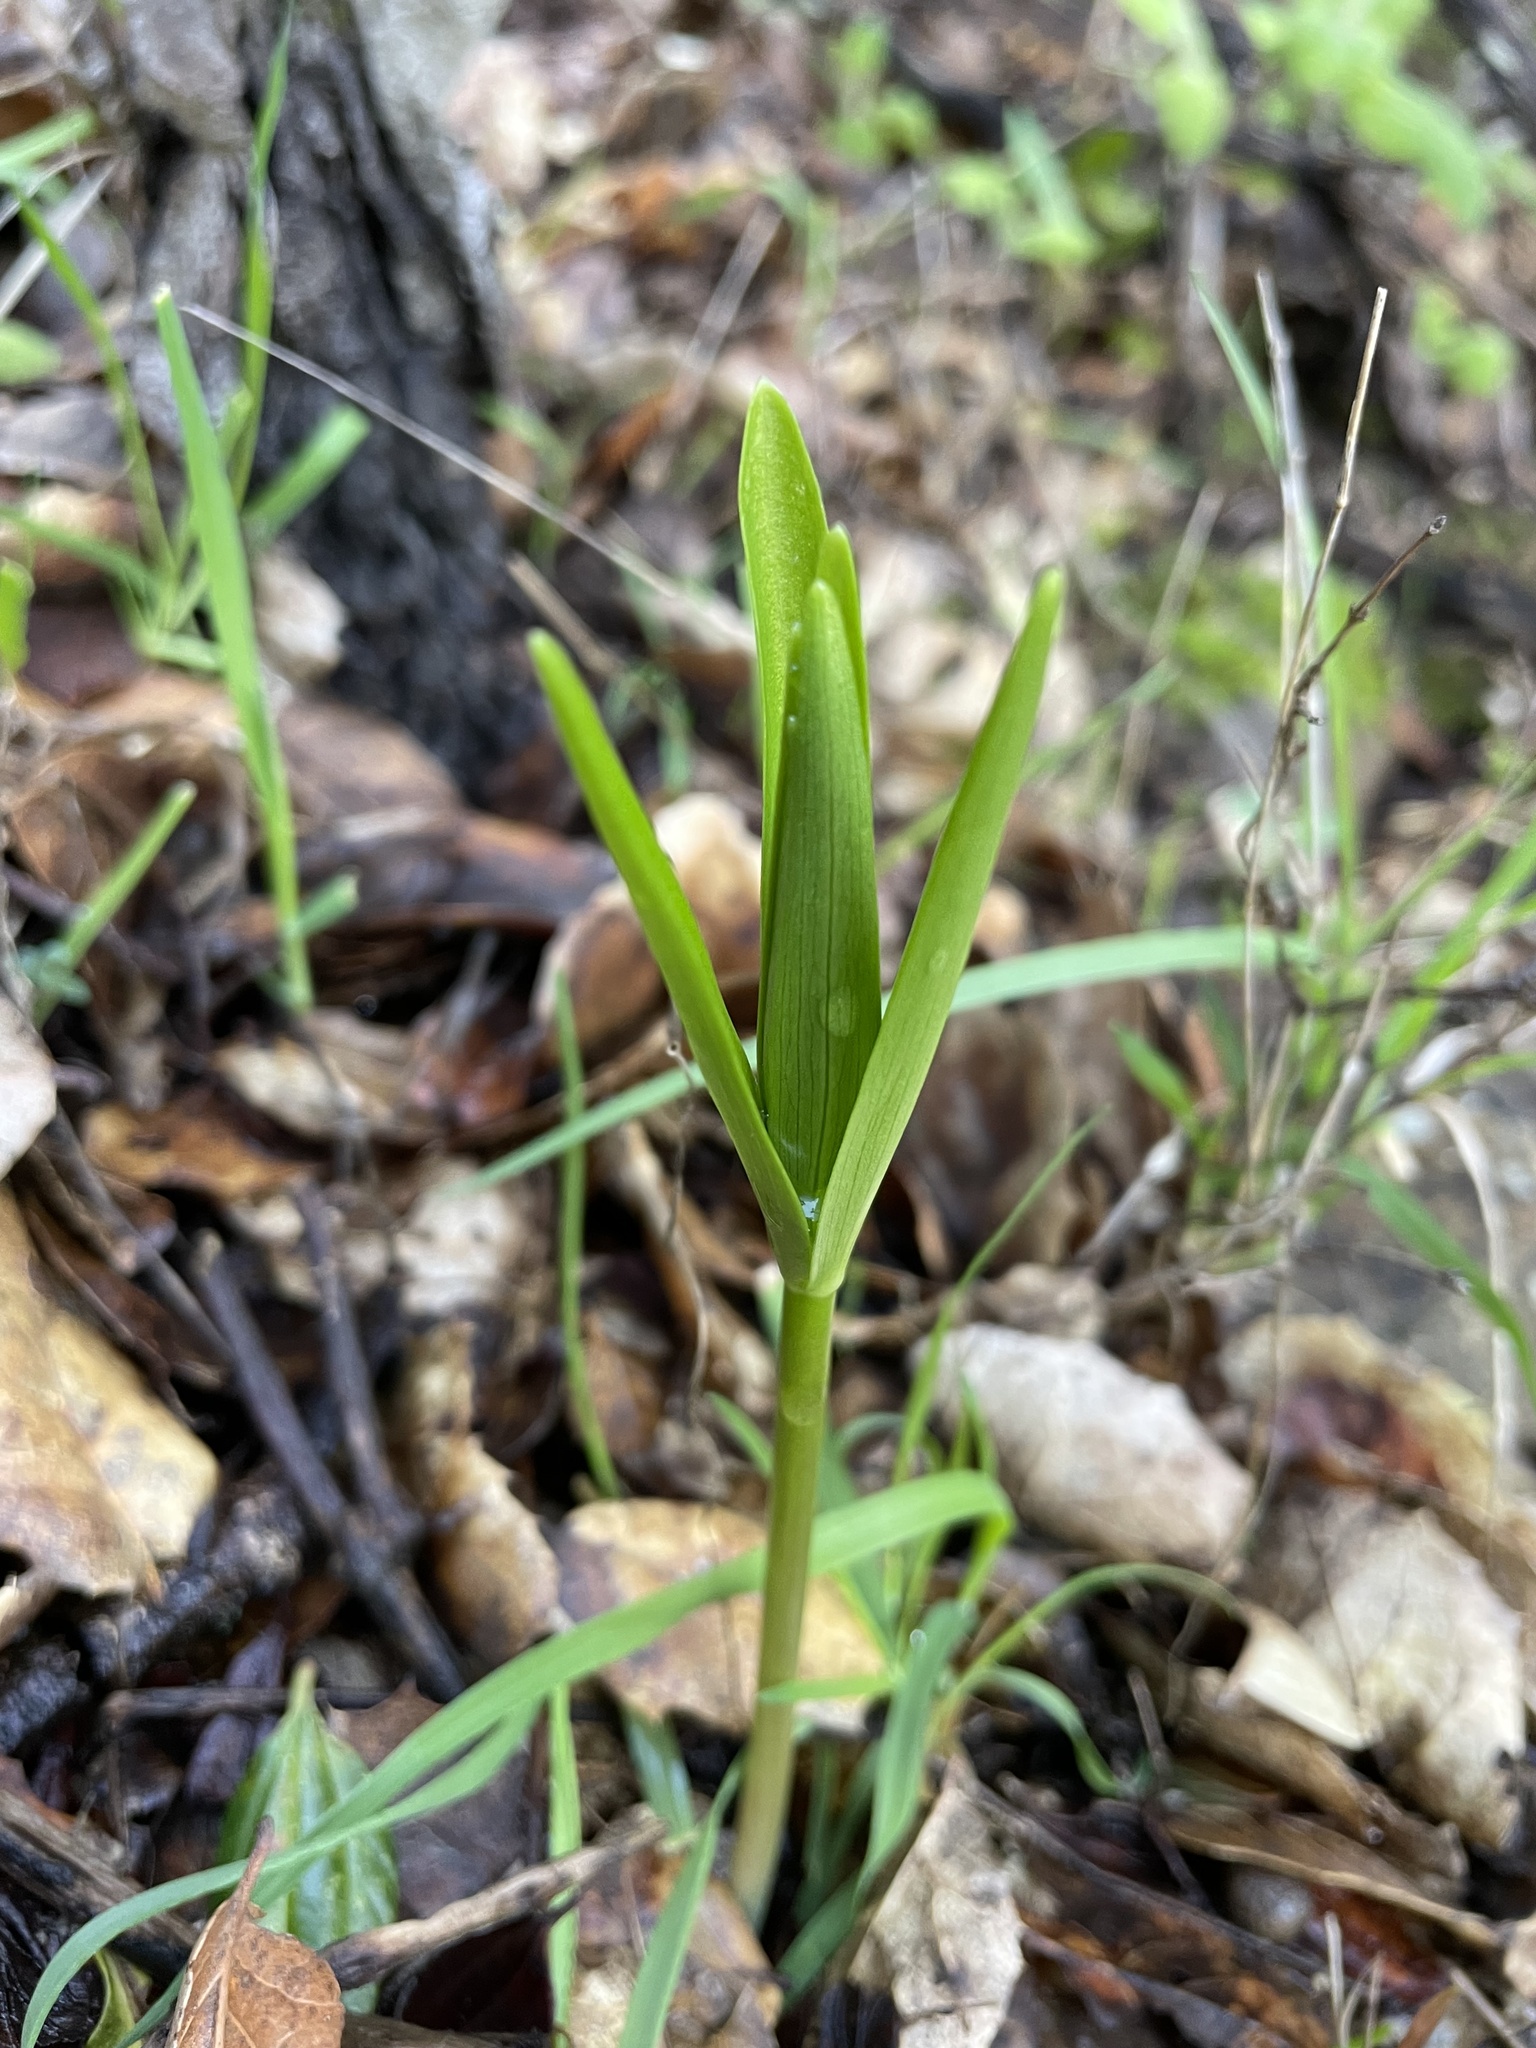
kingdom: Plantae
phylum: Tracheophyta
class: Liliopsida
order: Liliales
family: Liliaceae
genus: Fritillaria
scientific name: Fritillaria affinis
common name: Ojai fritillary
